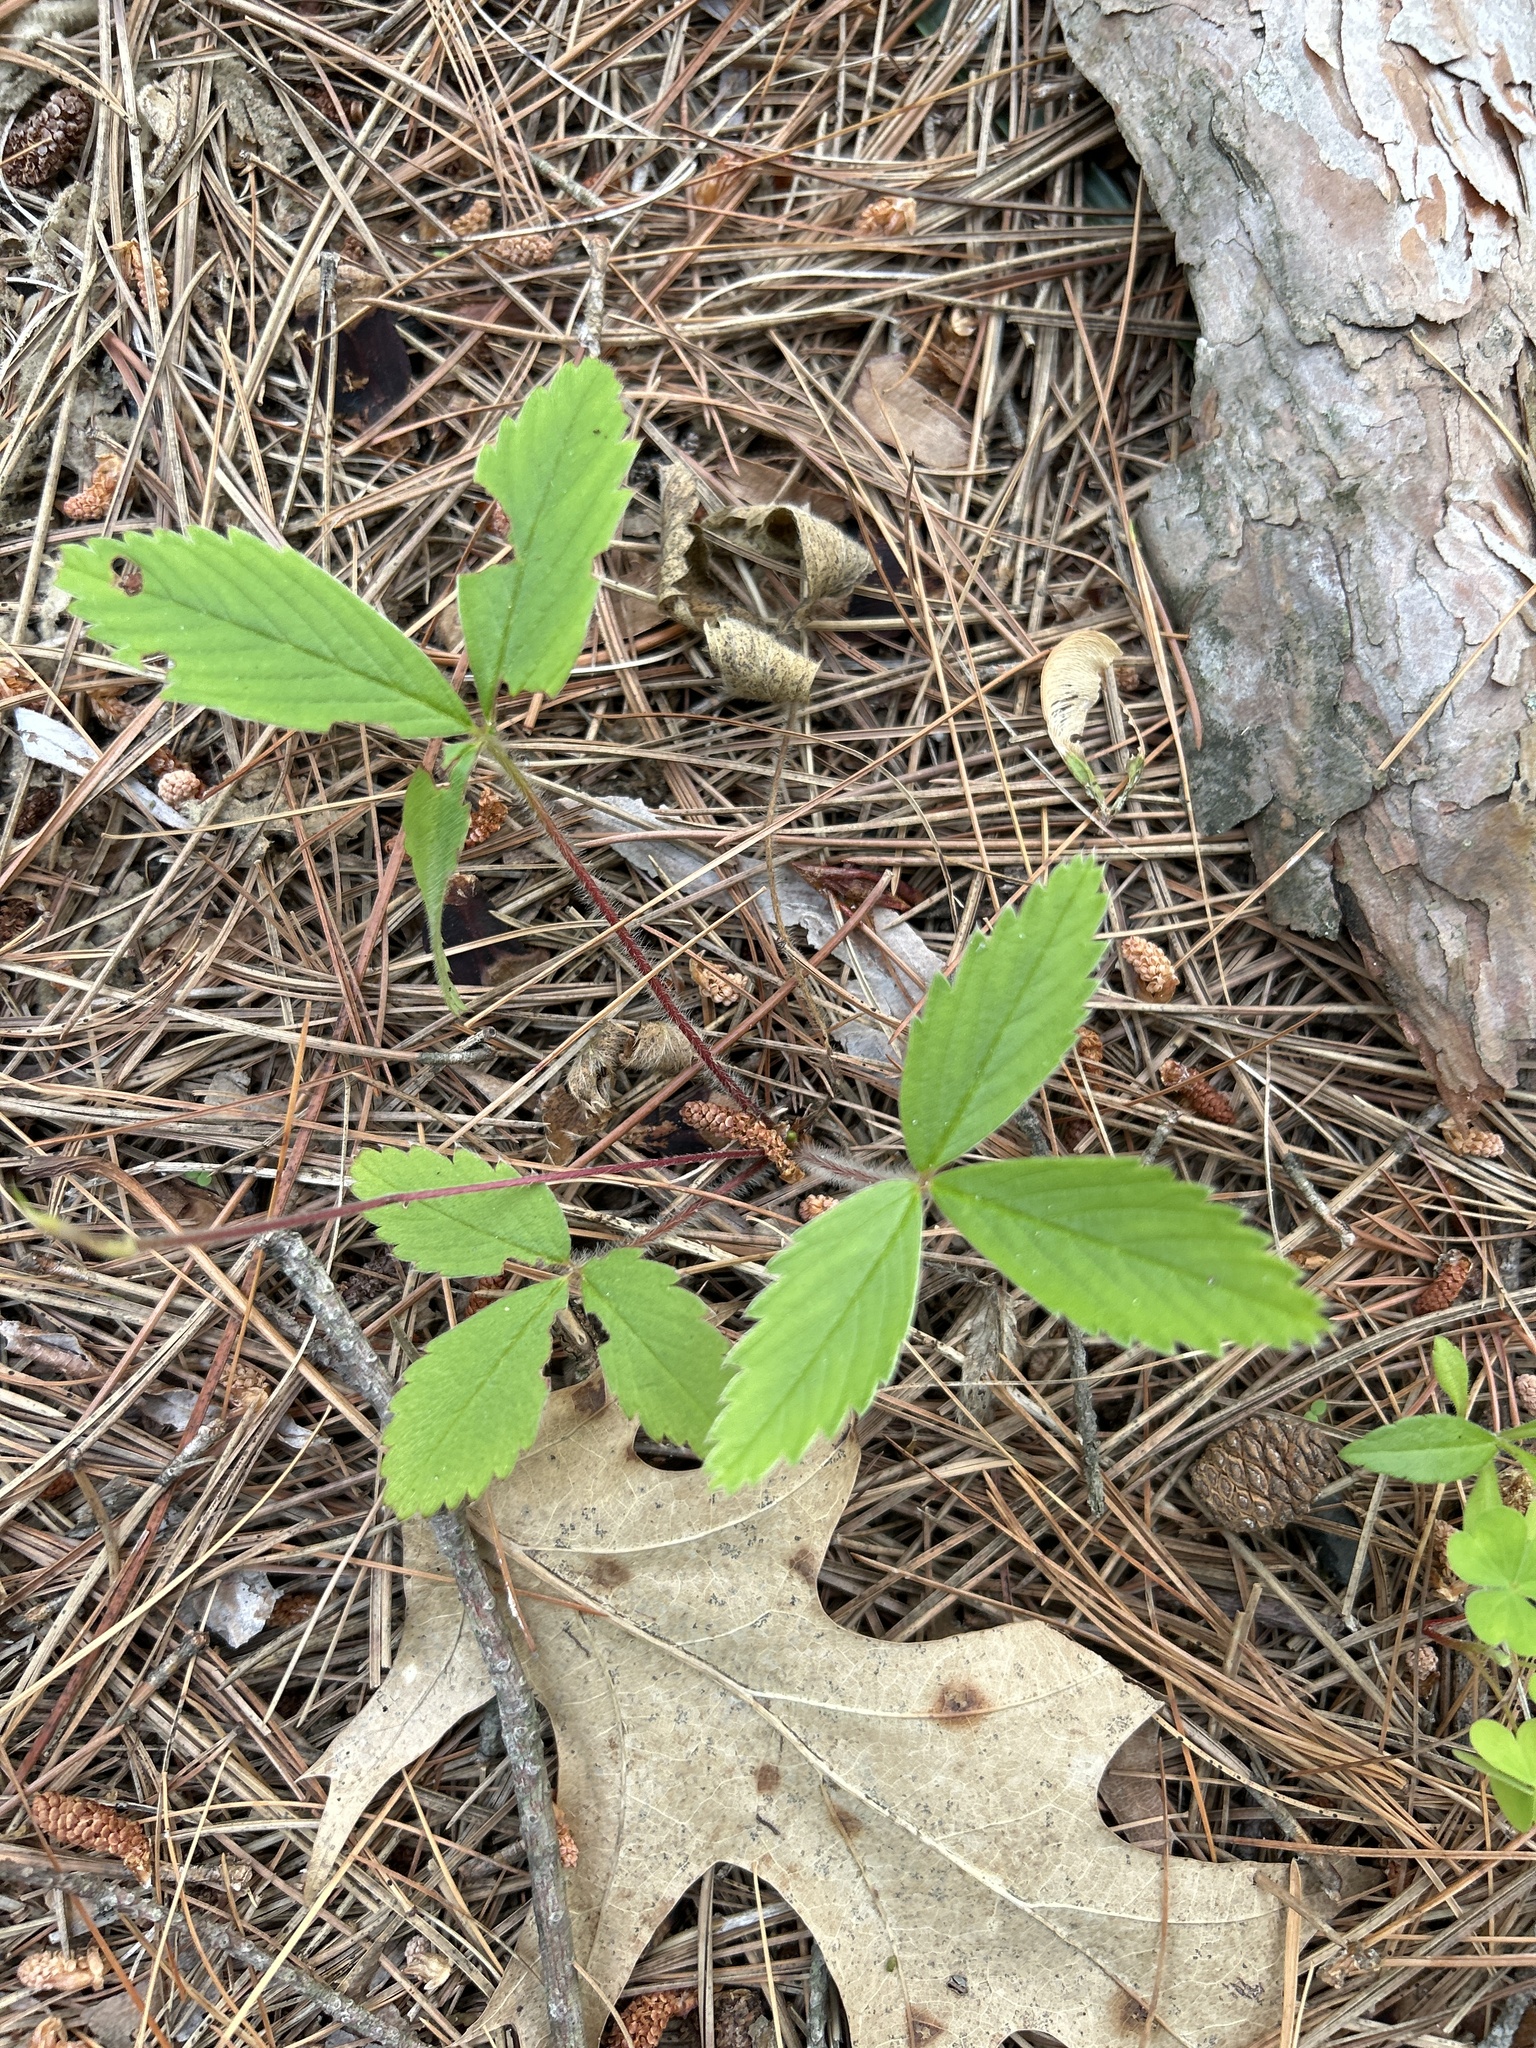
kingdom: Plantae
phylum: Tracheophyta
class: Magnoliopsida
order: Rosales
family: Rosaceae
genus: Fragaria
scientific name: Fragaria virginiana
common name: Thickleaved wild strawberry
